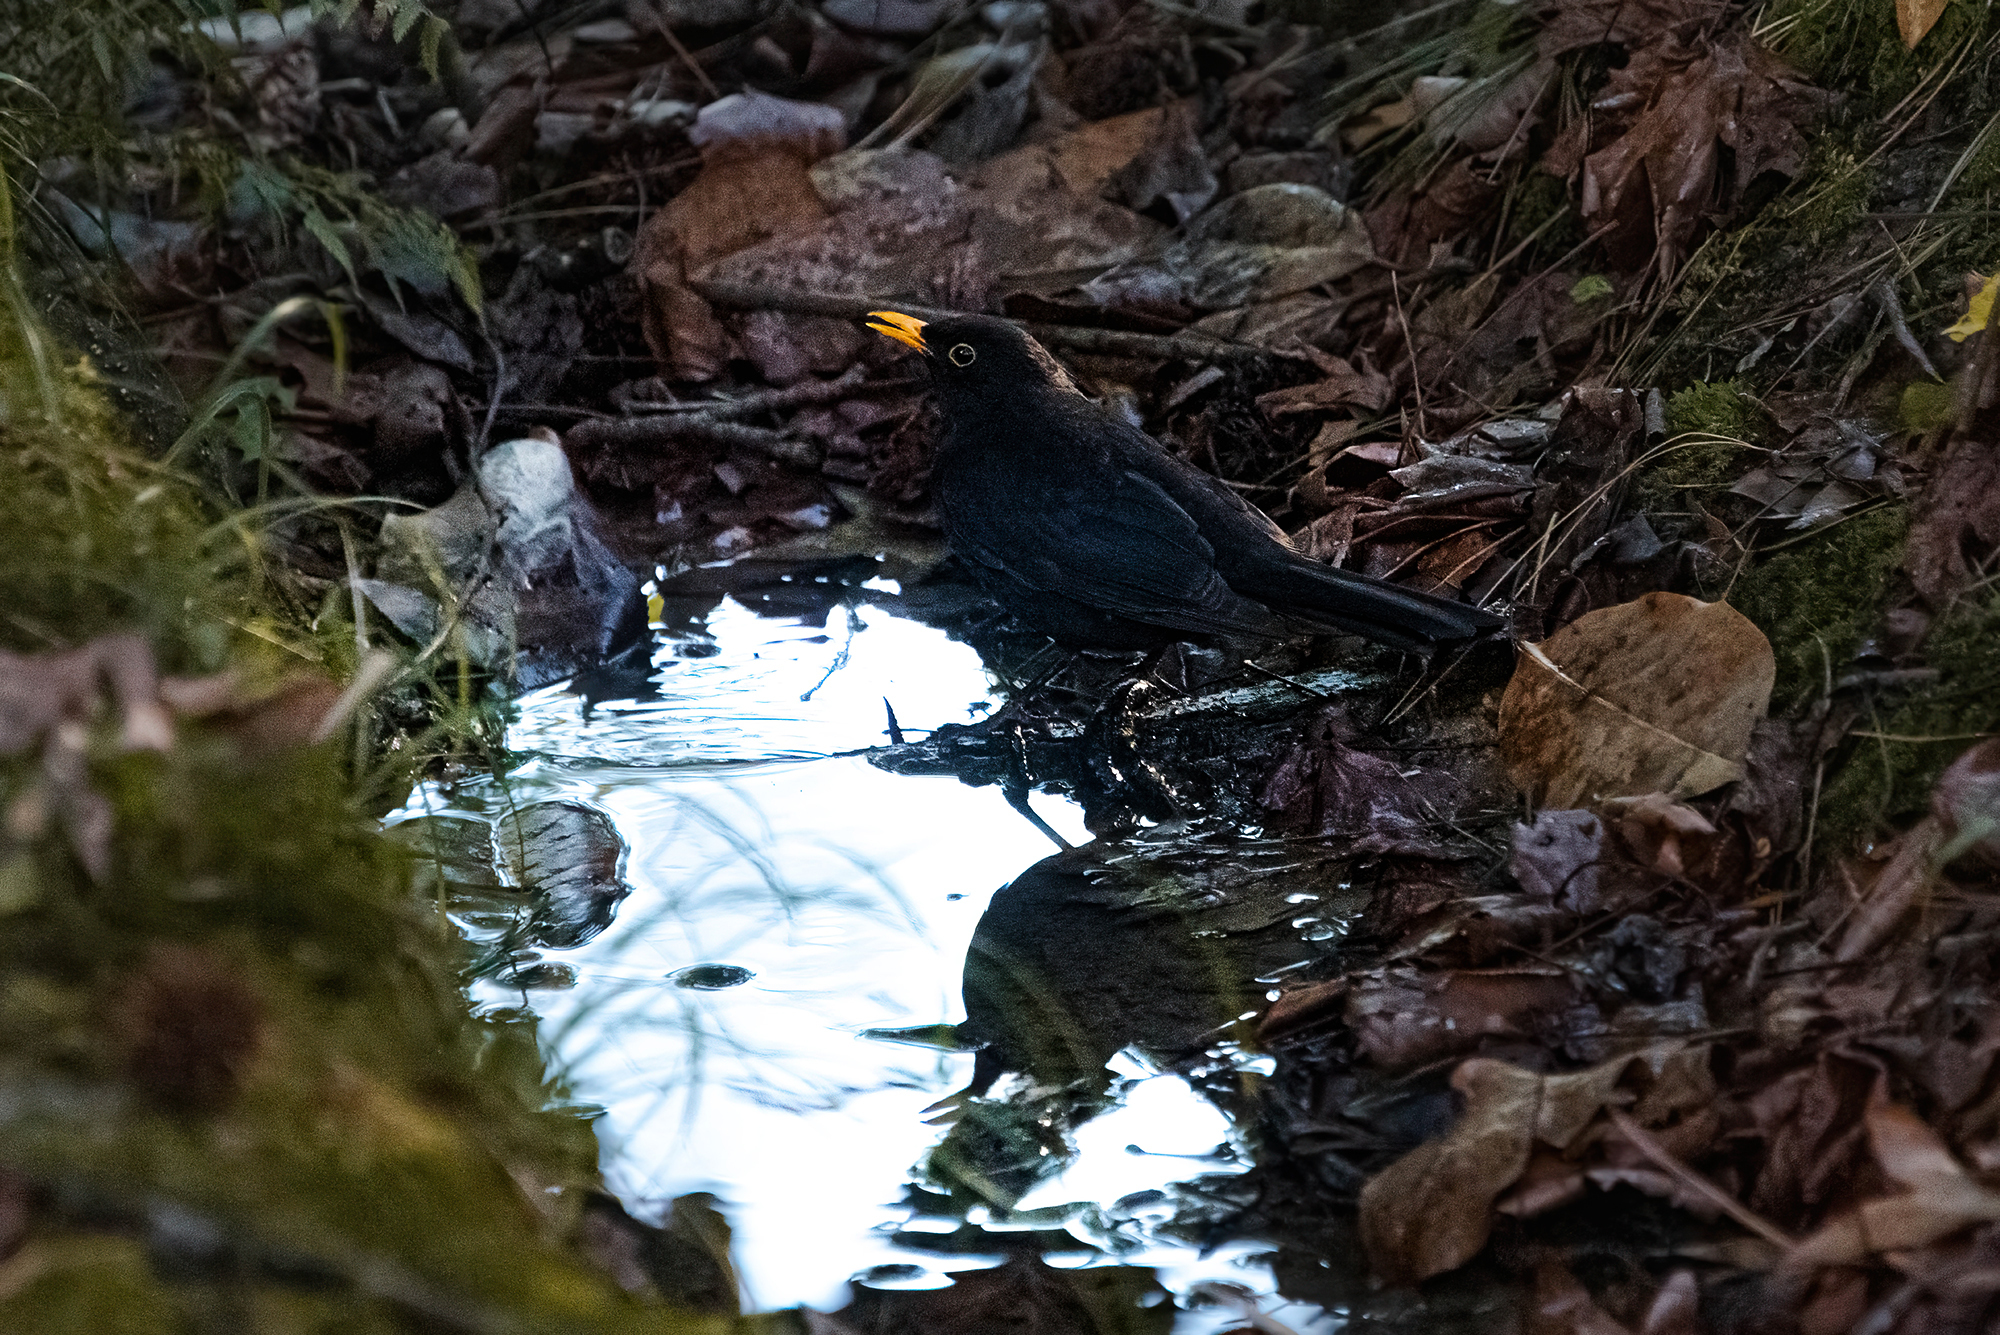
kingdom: Animalia
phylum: Chordata
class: Aves
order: Passeriformes
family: Turdidae
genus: Turdus
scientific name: Turdus merula
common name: Common blackbird
